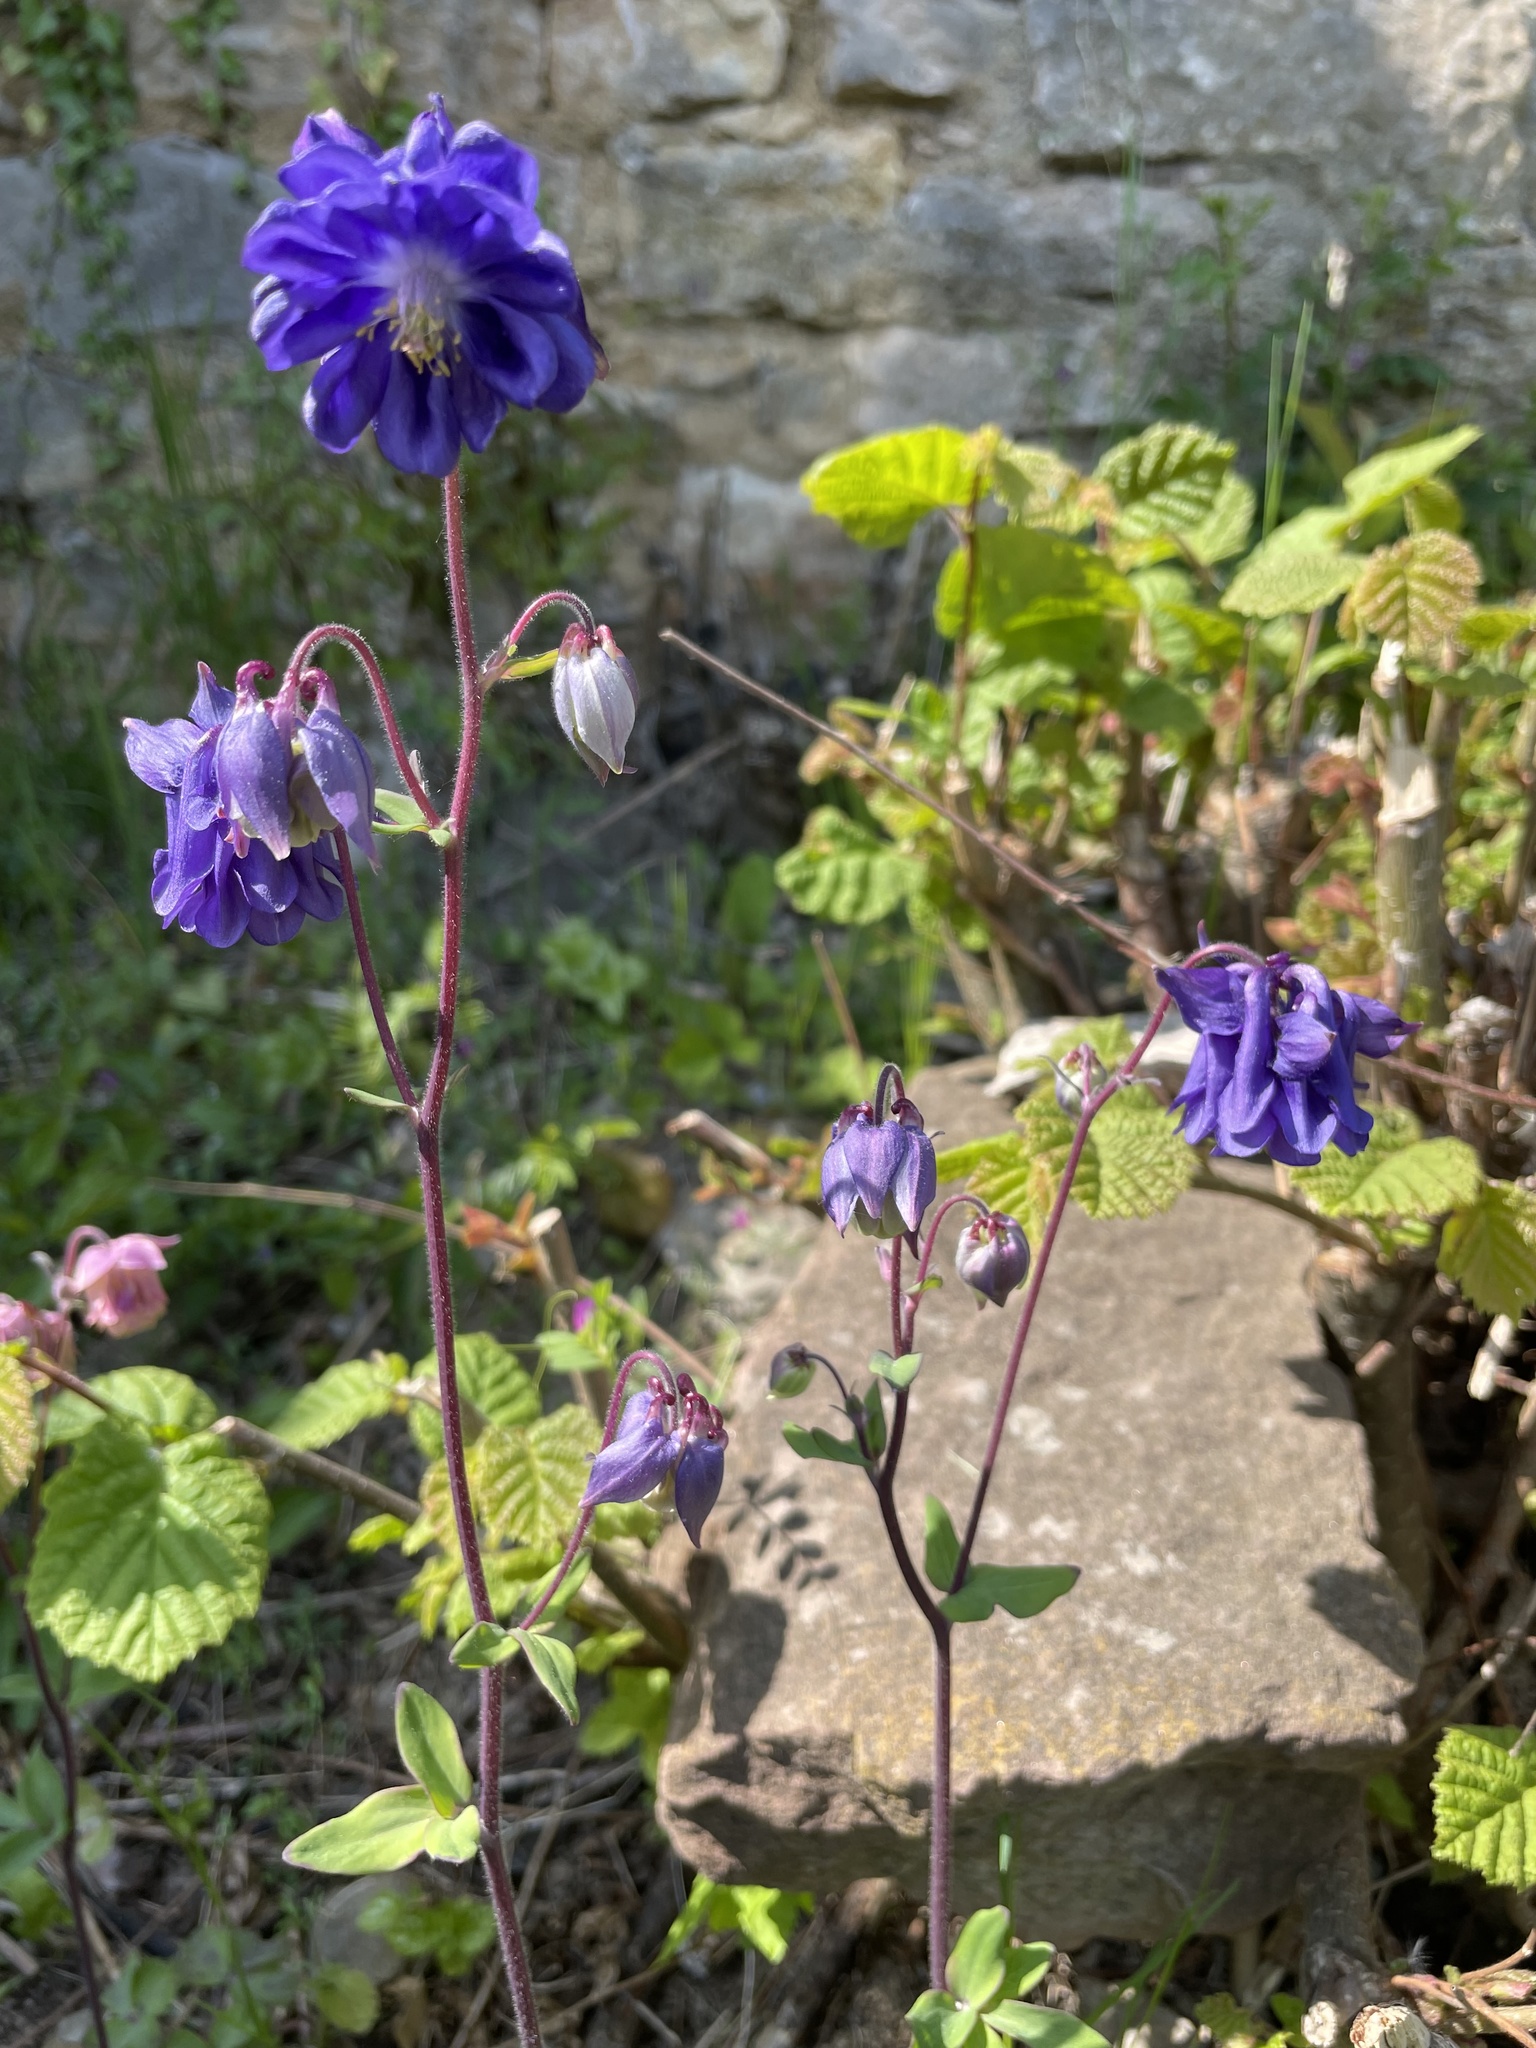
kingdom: Plantae
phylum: Tracheophyta
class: Magnoliopsida
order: Ranunculales
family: Ranunculaceae
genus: Aquilegia
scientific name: Aquilegia vulgaris
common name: Columbine
